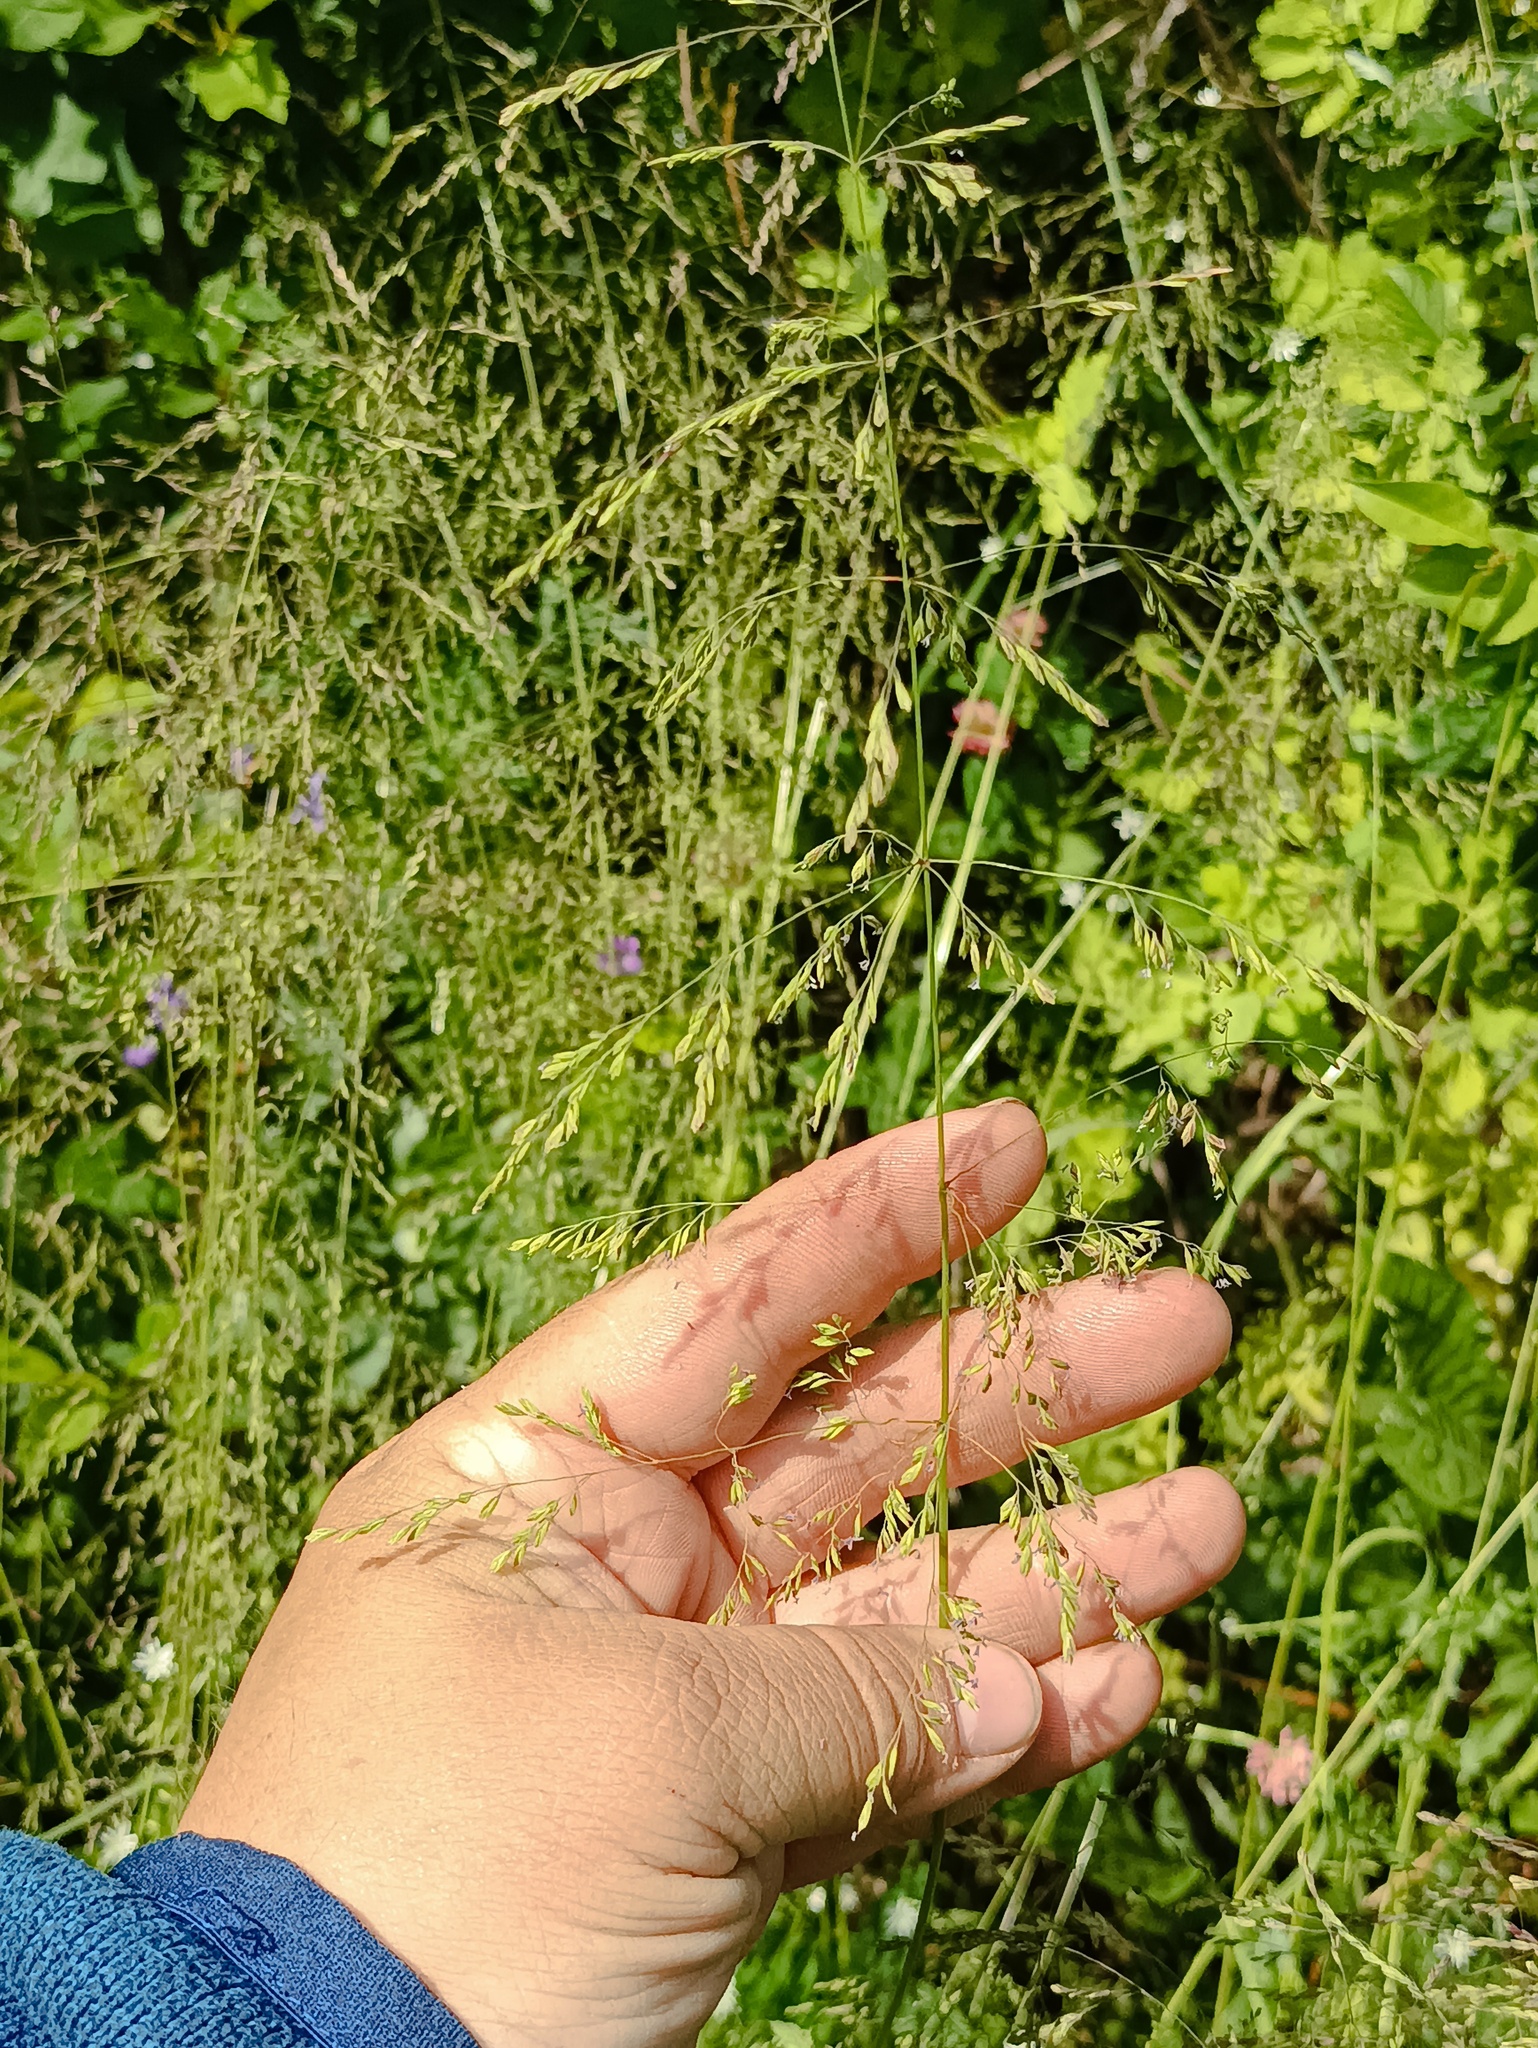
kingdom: Plantae
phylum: Tracheophyta
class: Liliopsida
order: Poales
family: Poaceae
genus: Poa
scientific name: Poa trivialis
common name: Rough bluegrass
